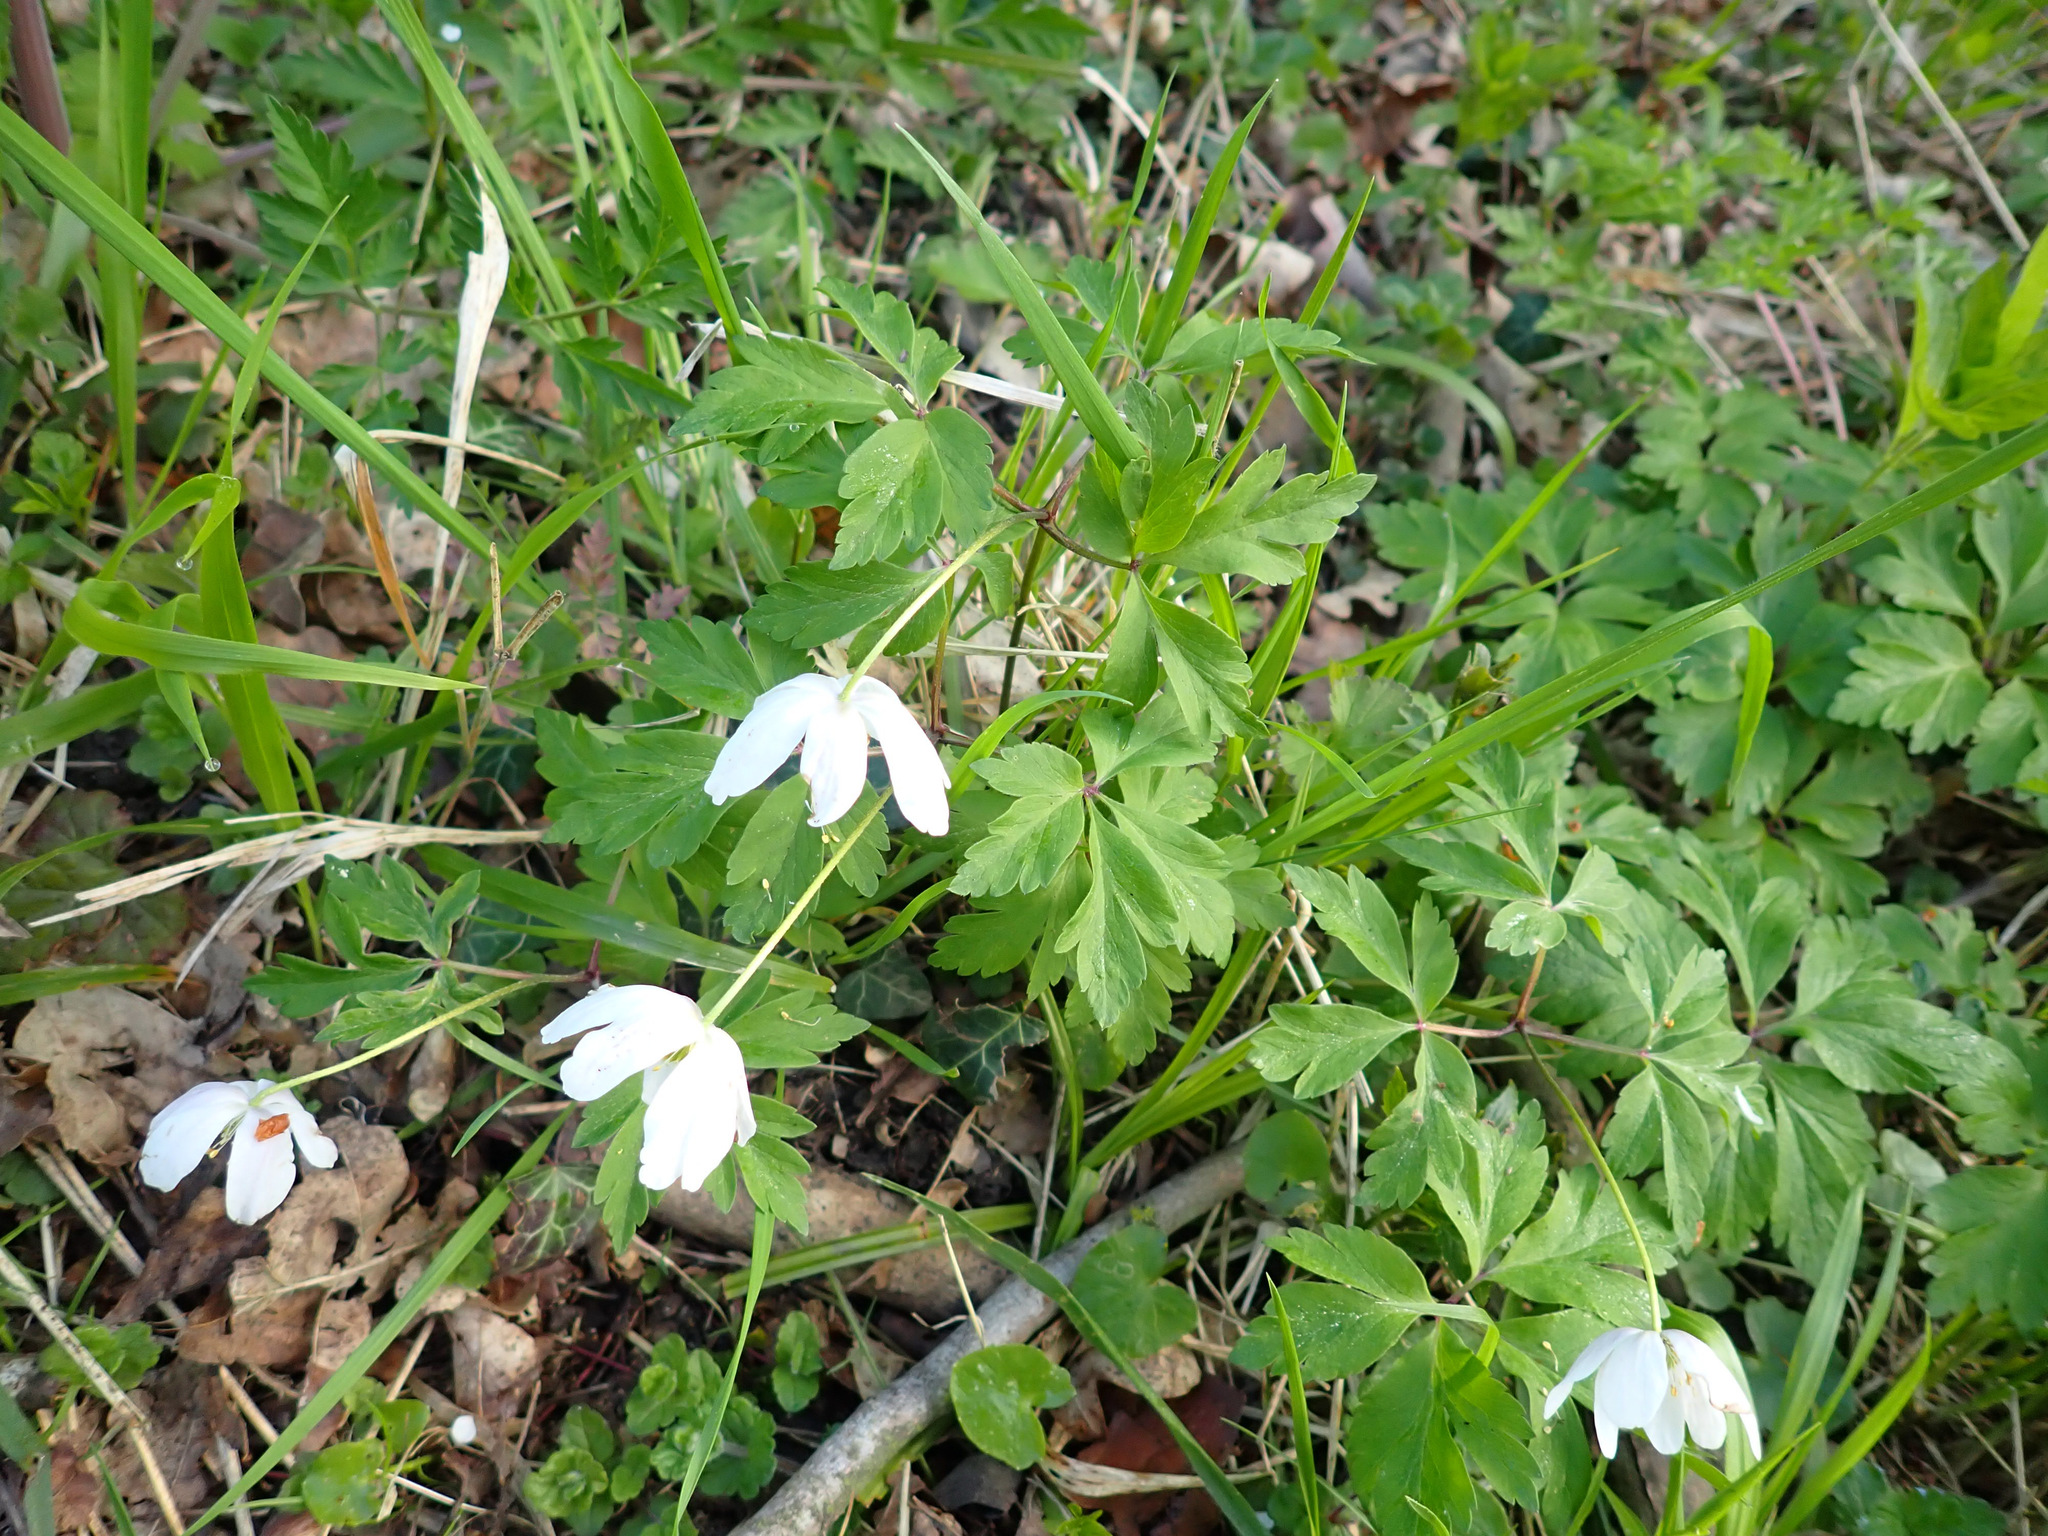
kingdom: Plantae
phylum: Tracheophyta
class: Magnoliopsida
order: Ranunculales
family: Ranunculaceae
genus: Anemone
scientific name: Anemone nemorosa
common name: Wood anemone
